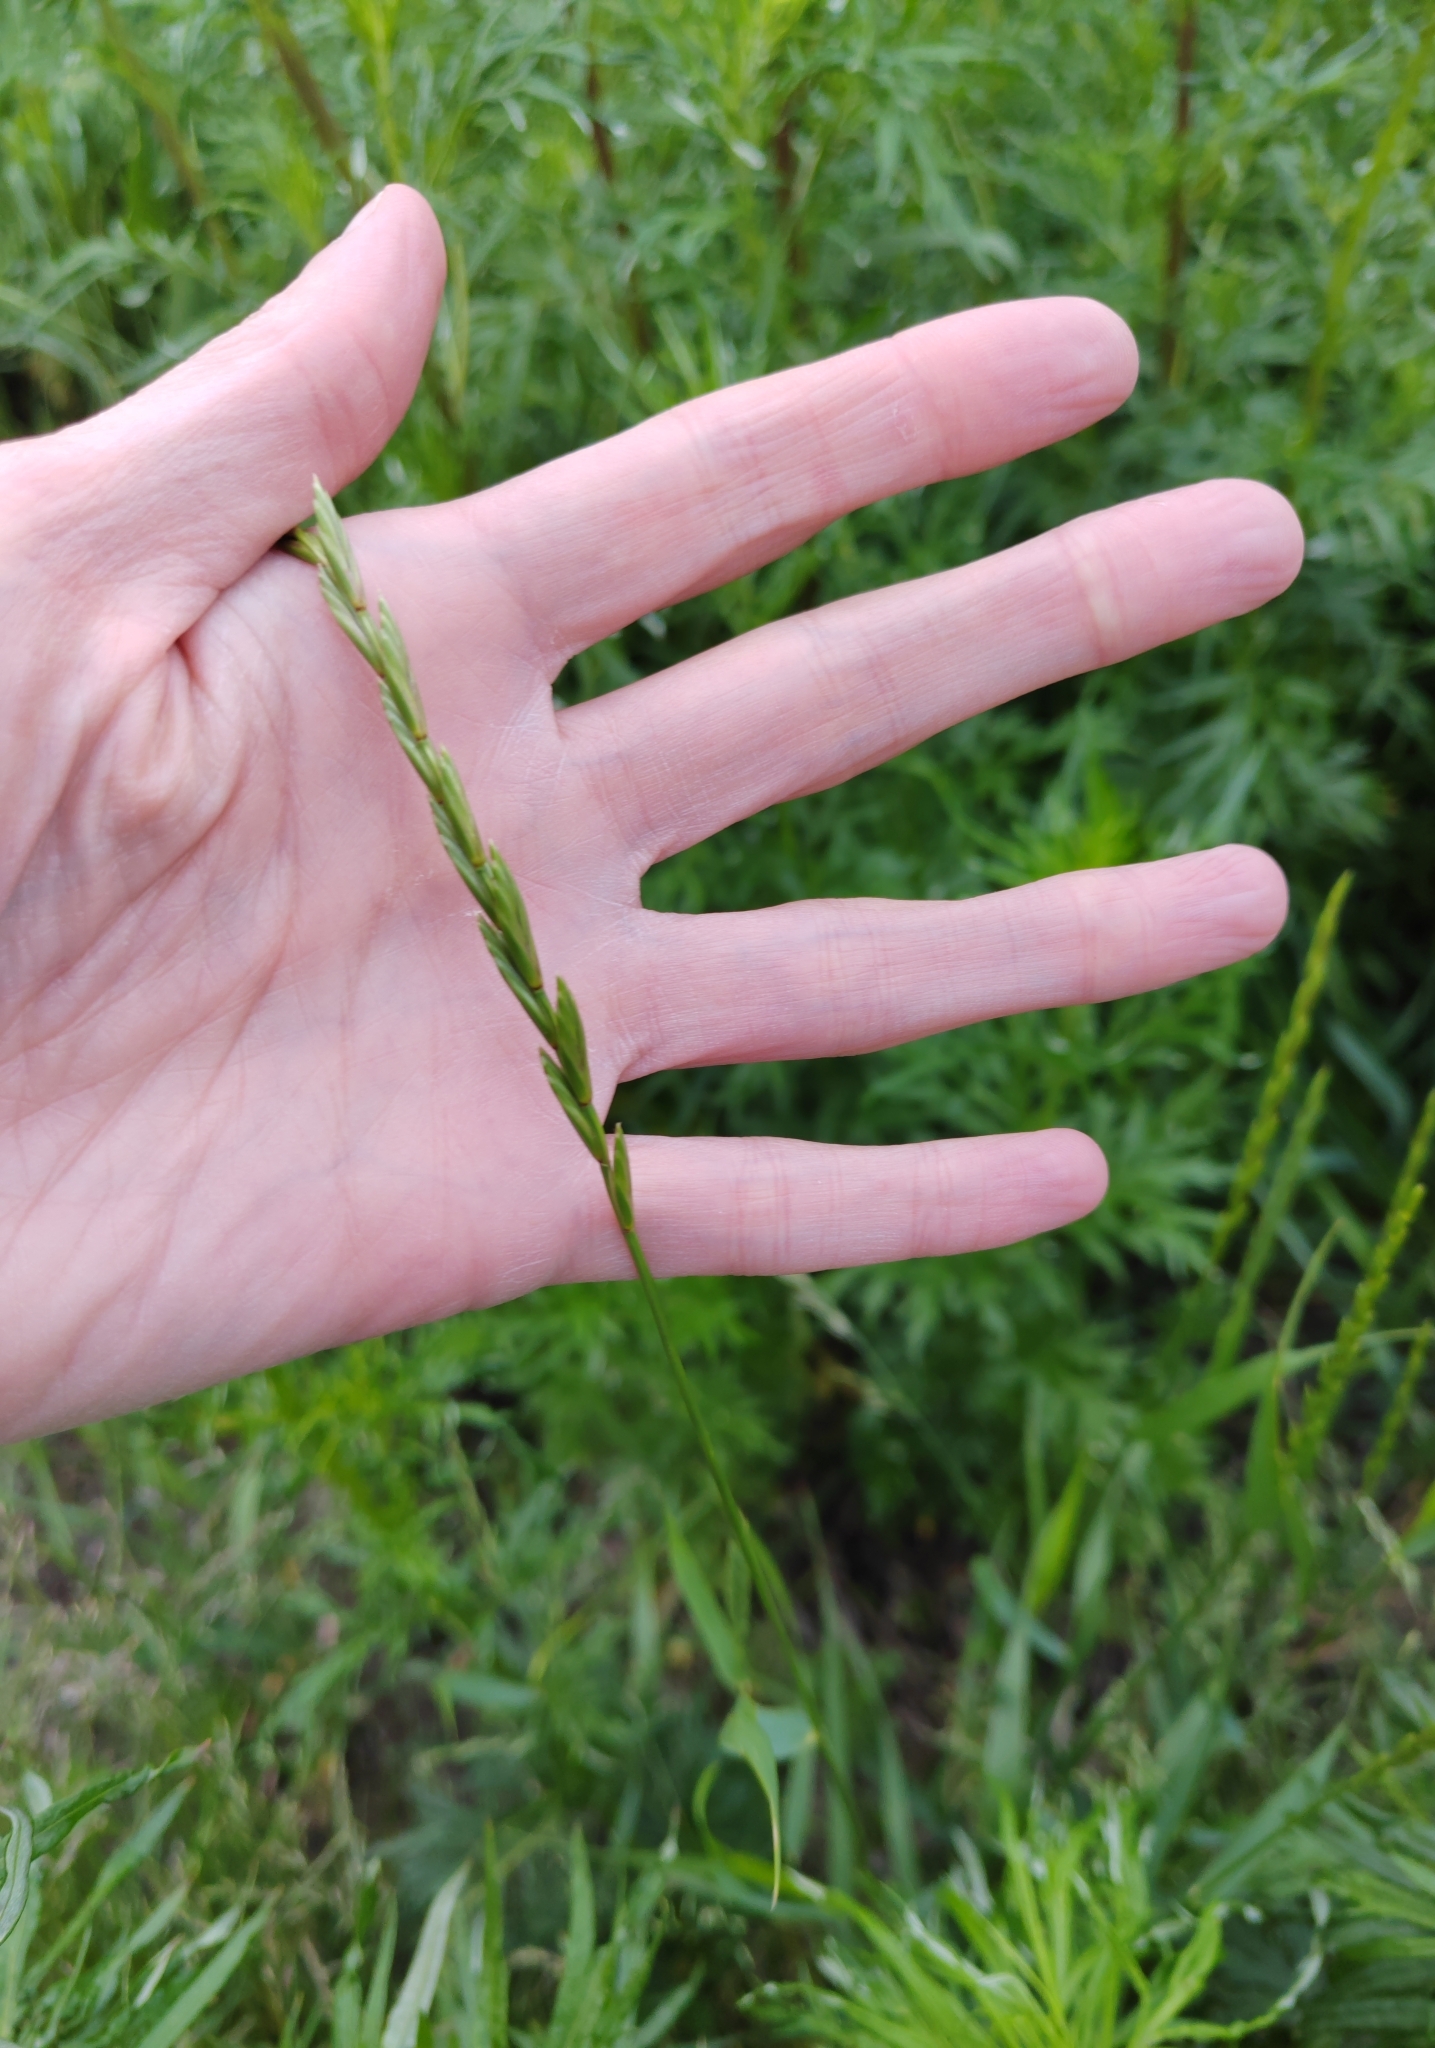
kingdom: Plantae
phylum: Tracheophyta
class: Liliopsida
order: Poales
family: Poaceae
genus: Elymus
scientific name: Elymus repens
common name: Quackgrass
